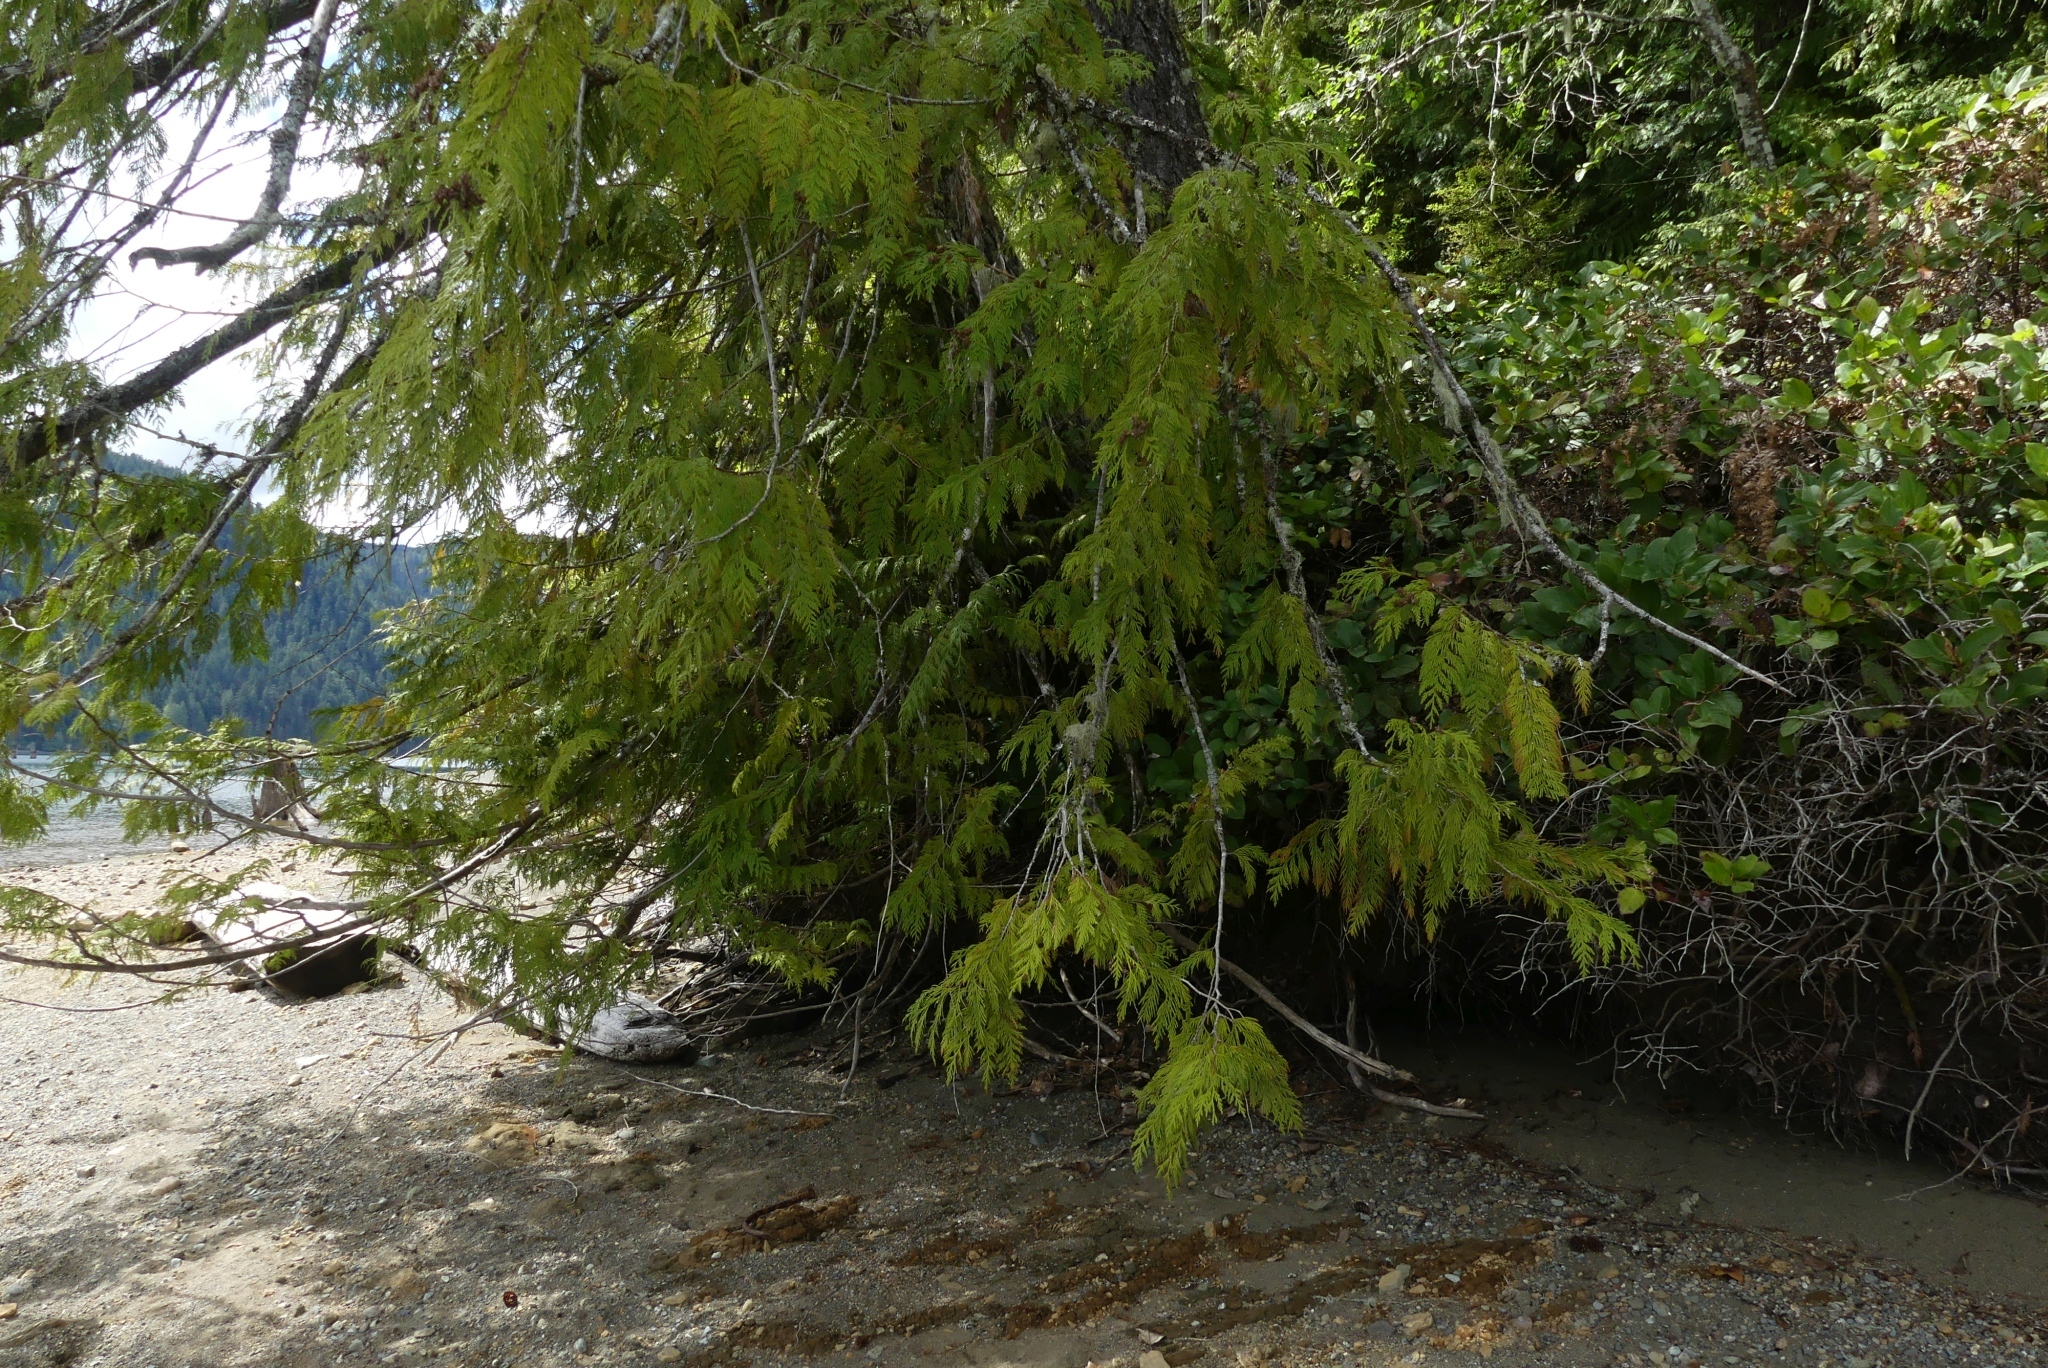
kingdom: Plantae
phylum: Tracheophyta
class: Pinopsida
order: Pinales
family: Cupressaceae
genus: Thuja
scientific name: Thuja plicata
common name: Western red-cedar
